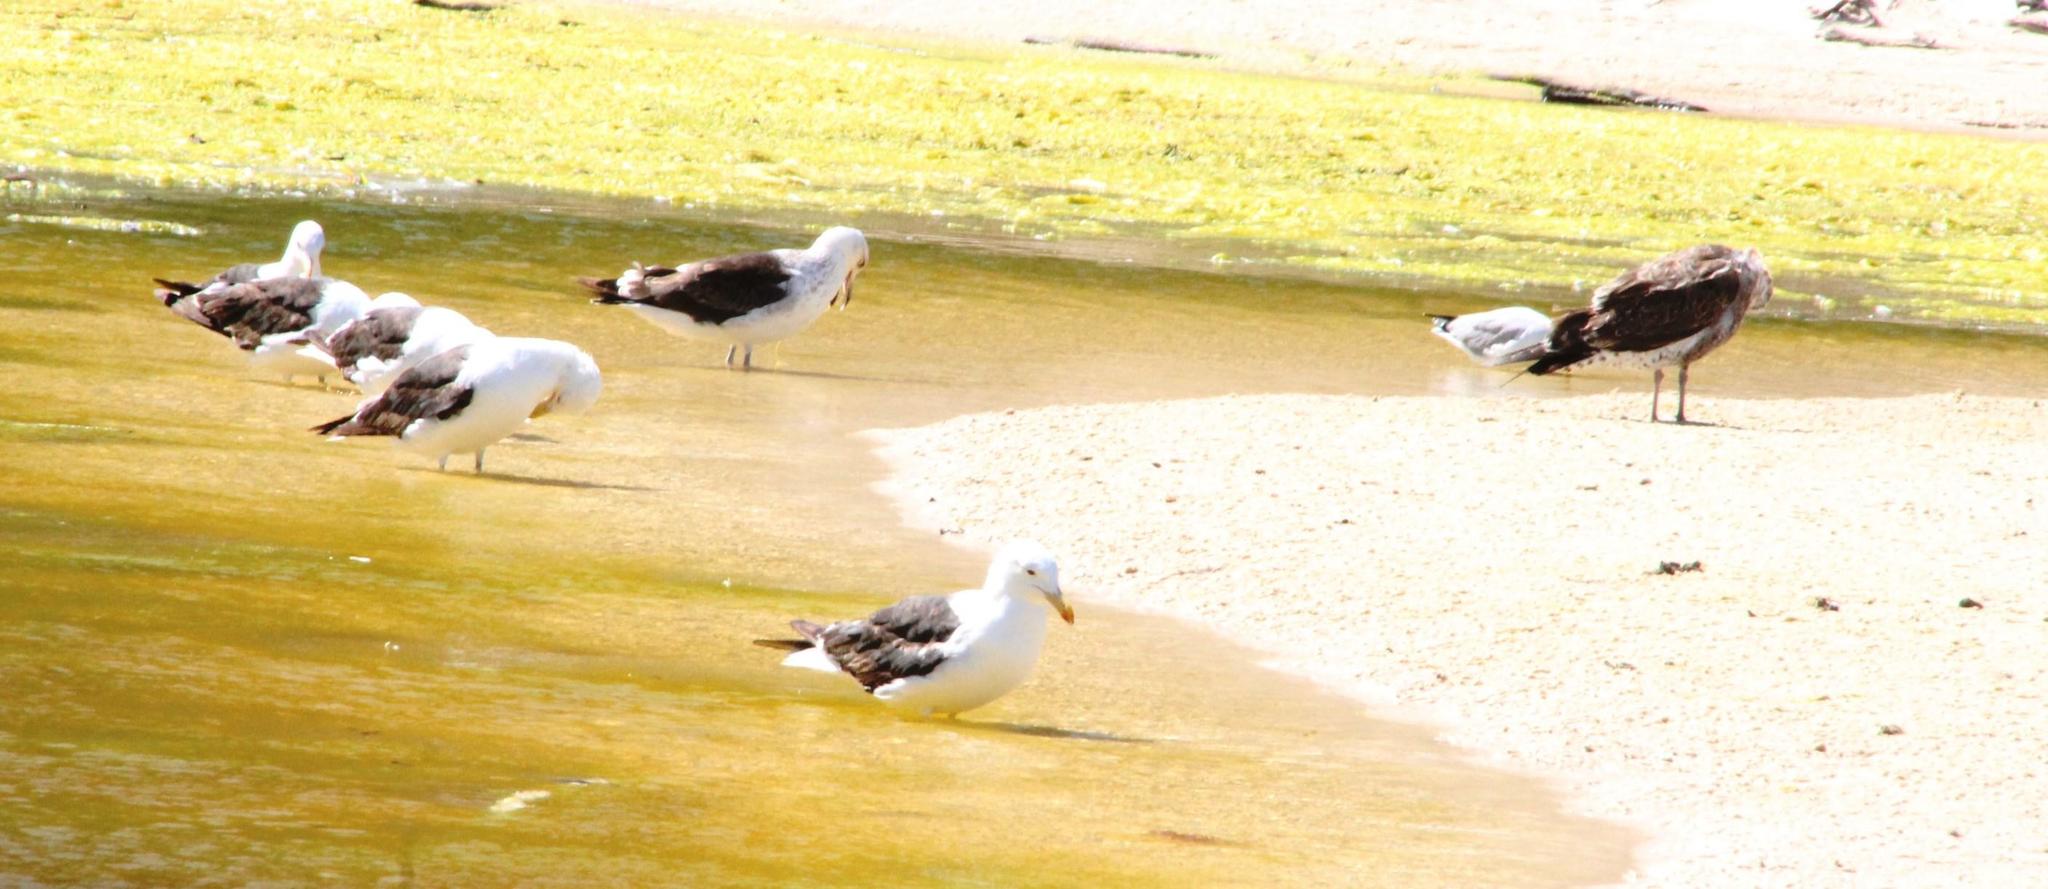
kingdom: Animalia
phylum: Chordata
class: Aves
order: Charadriiformes
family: Laridae
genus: Larus
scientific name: Larus dominicanus
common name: Kelp gull
